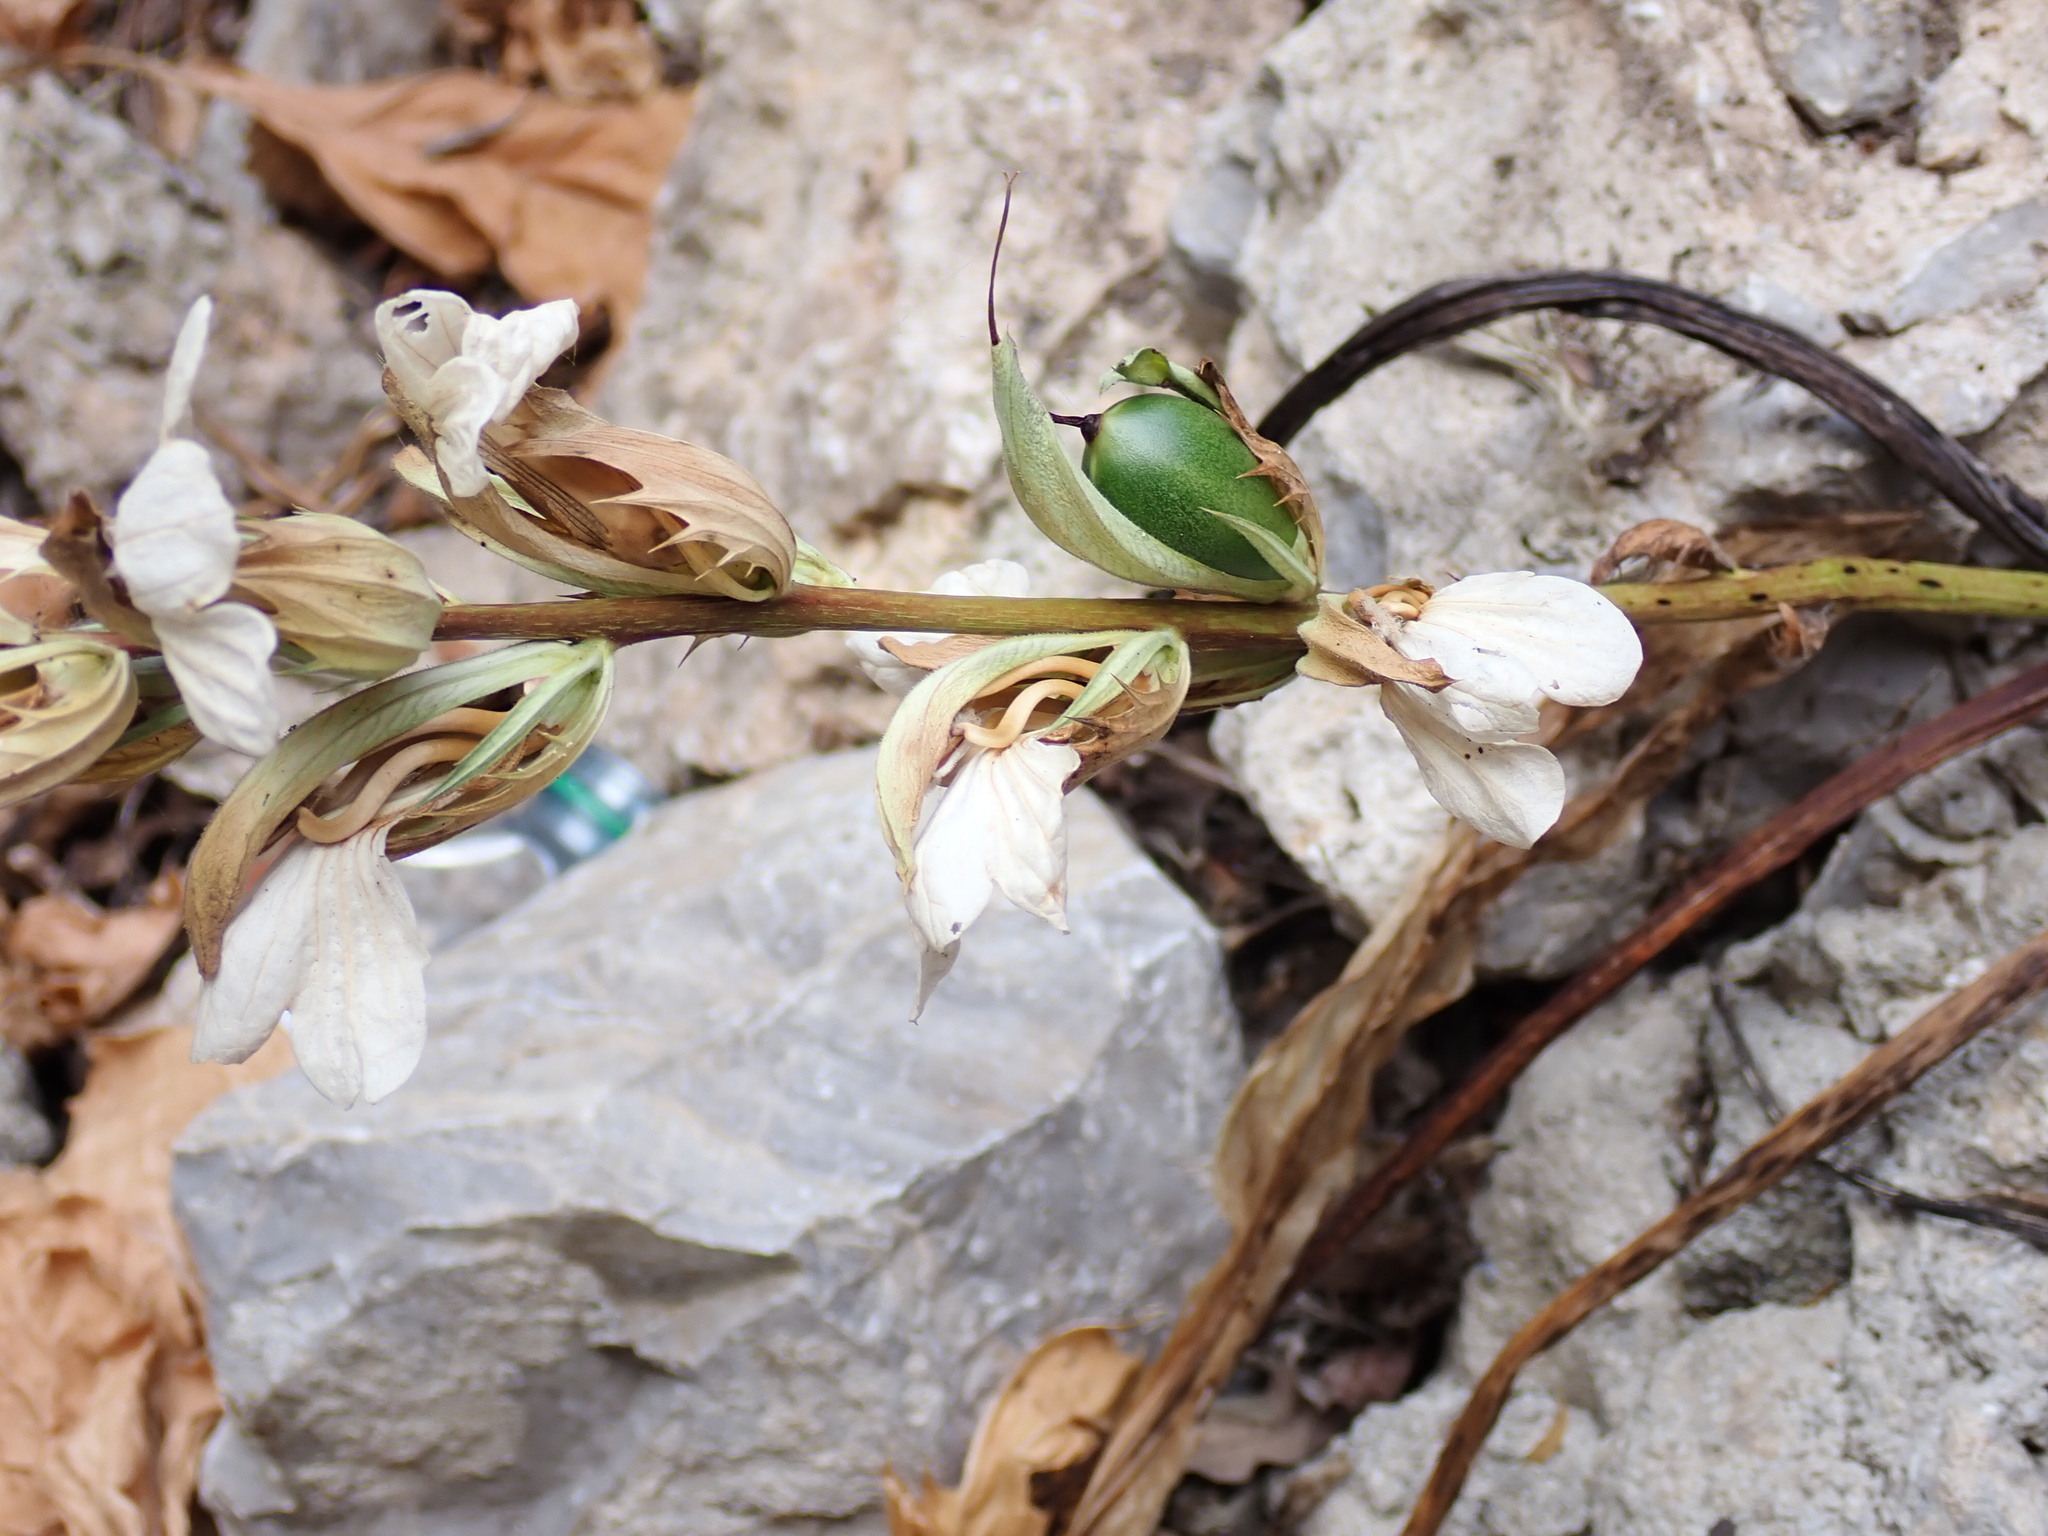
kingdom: Plantae
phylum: Tracheophyta
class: Magnoliopsida
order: Lamiales
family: Acanthaceae
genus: Acanthus
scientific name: Acanthus mollis
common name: Bear's-breech
